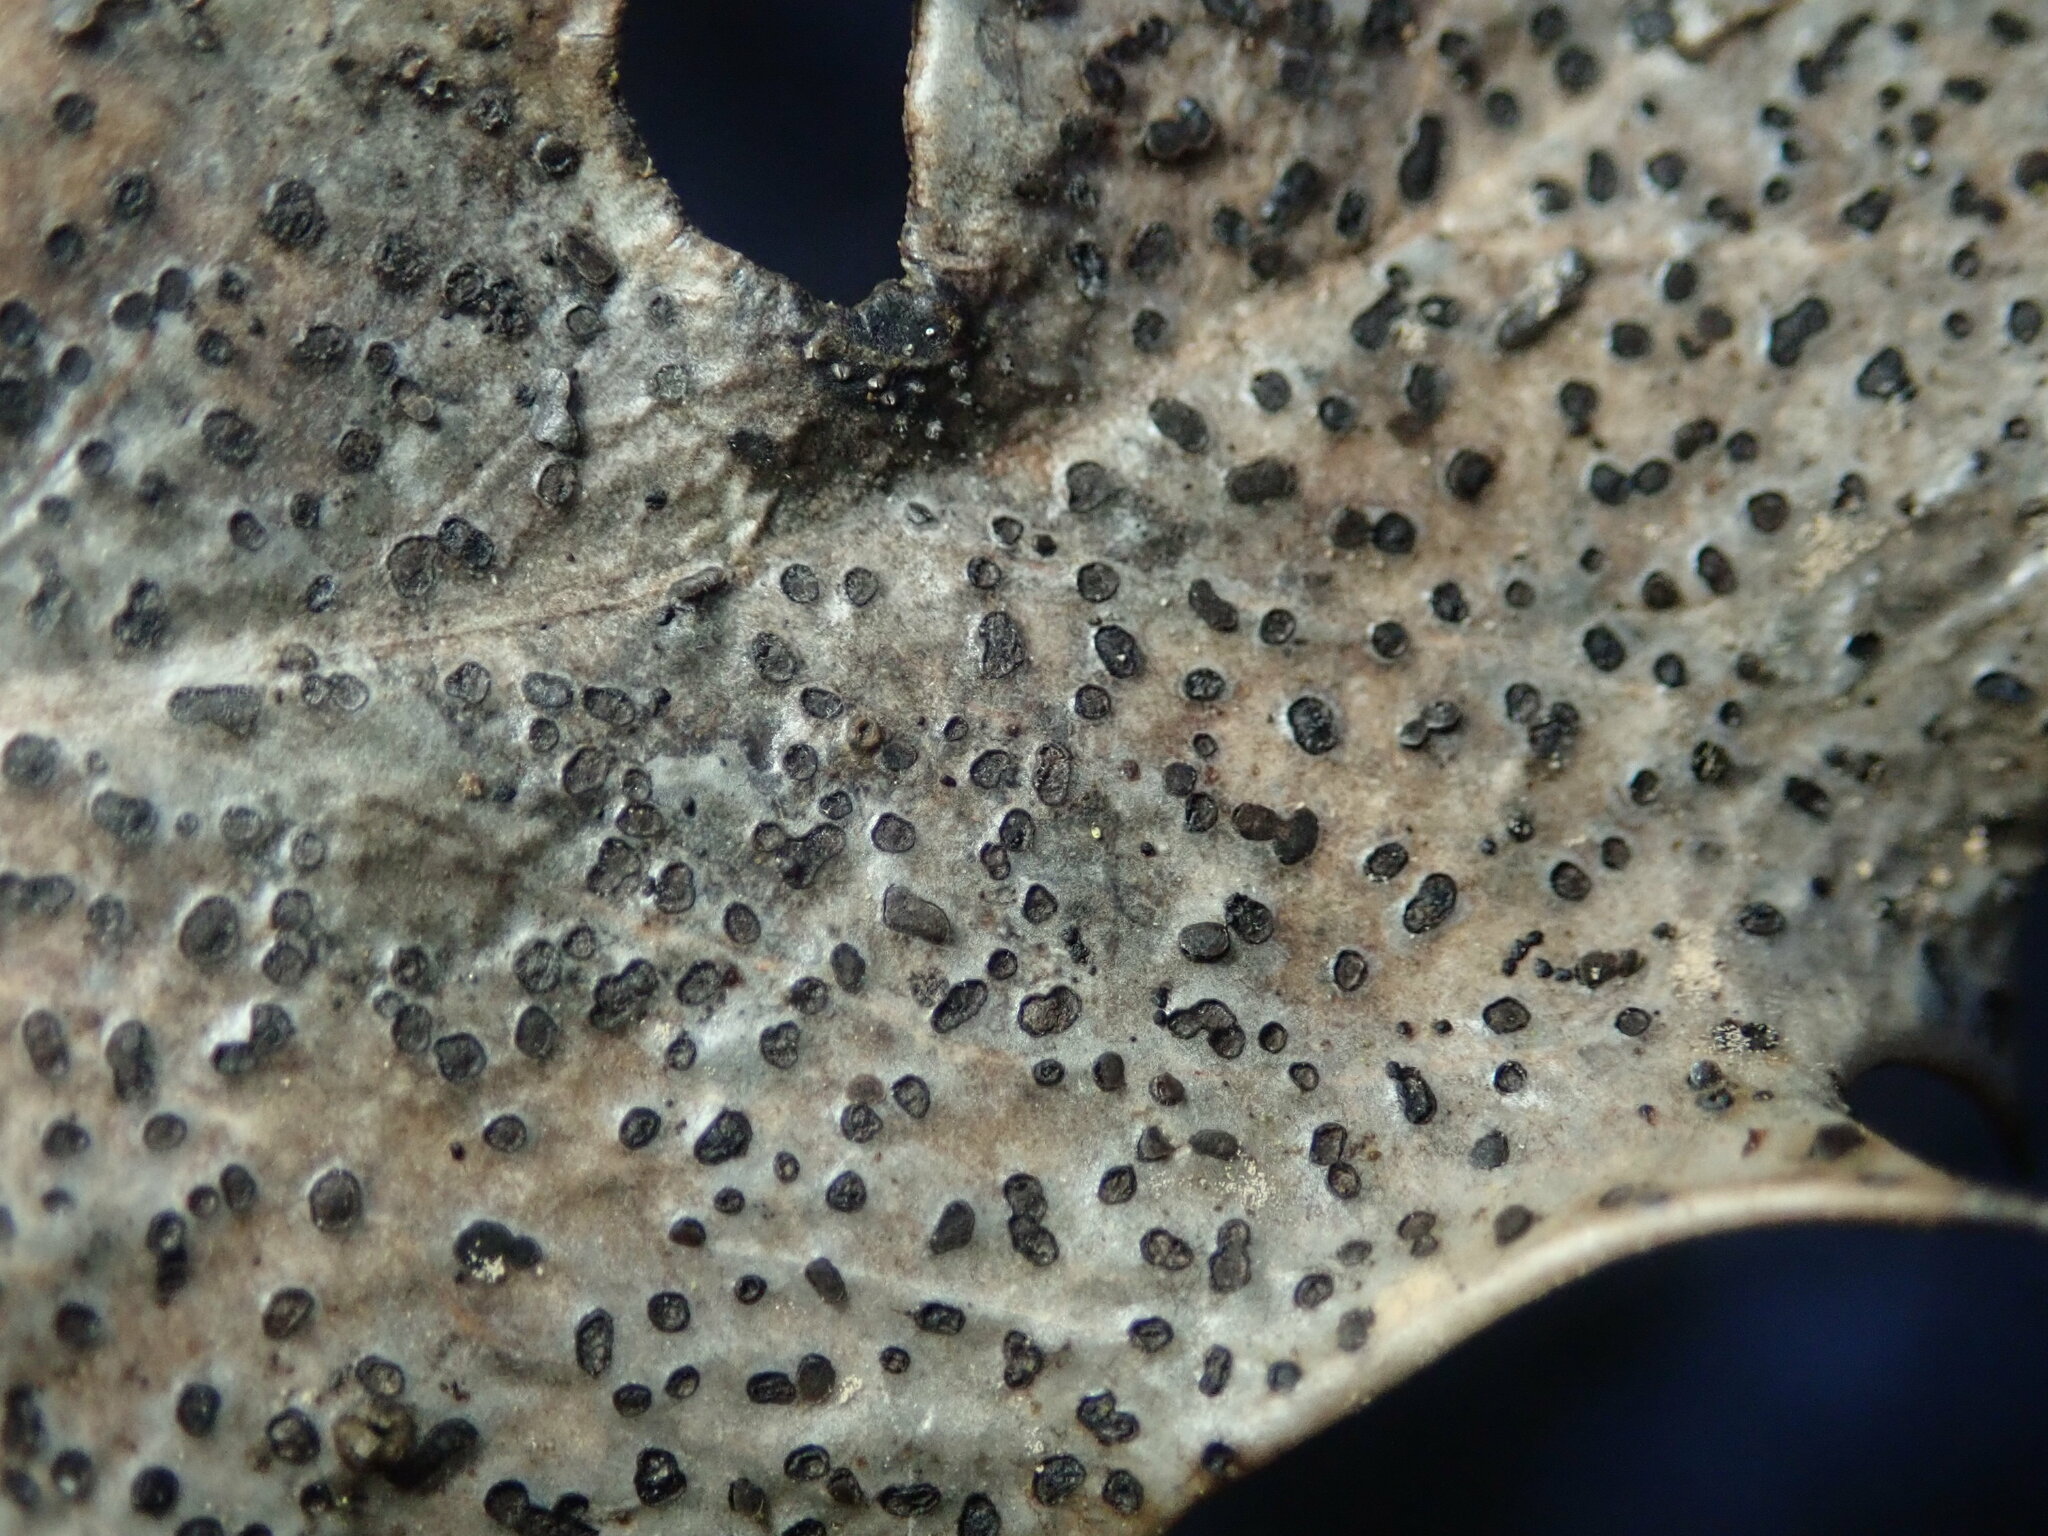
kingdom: Fungi
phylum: Ascomycota
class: Leotiomycetes
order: Helotiales
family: Cenangiaceae
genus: Trochila
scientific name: Trochila ilicina
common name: Holly speckle
